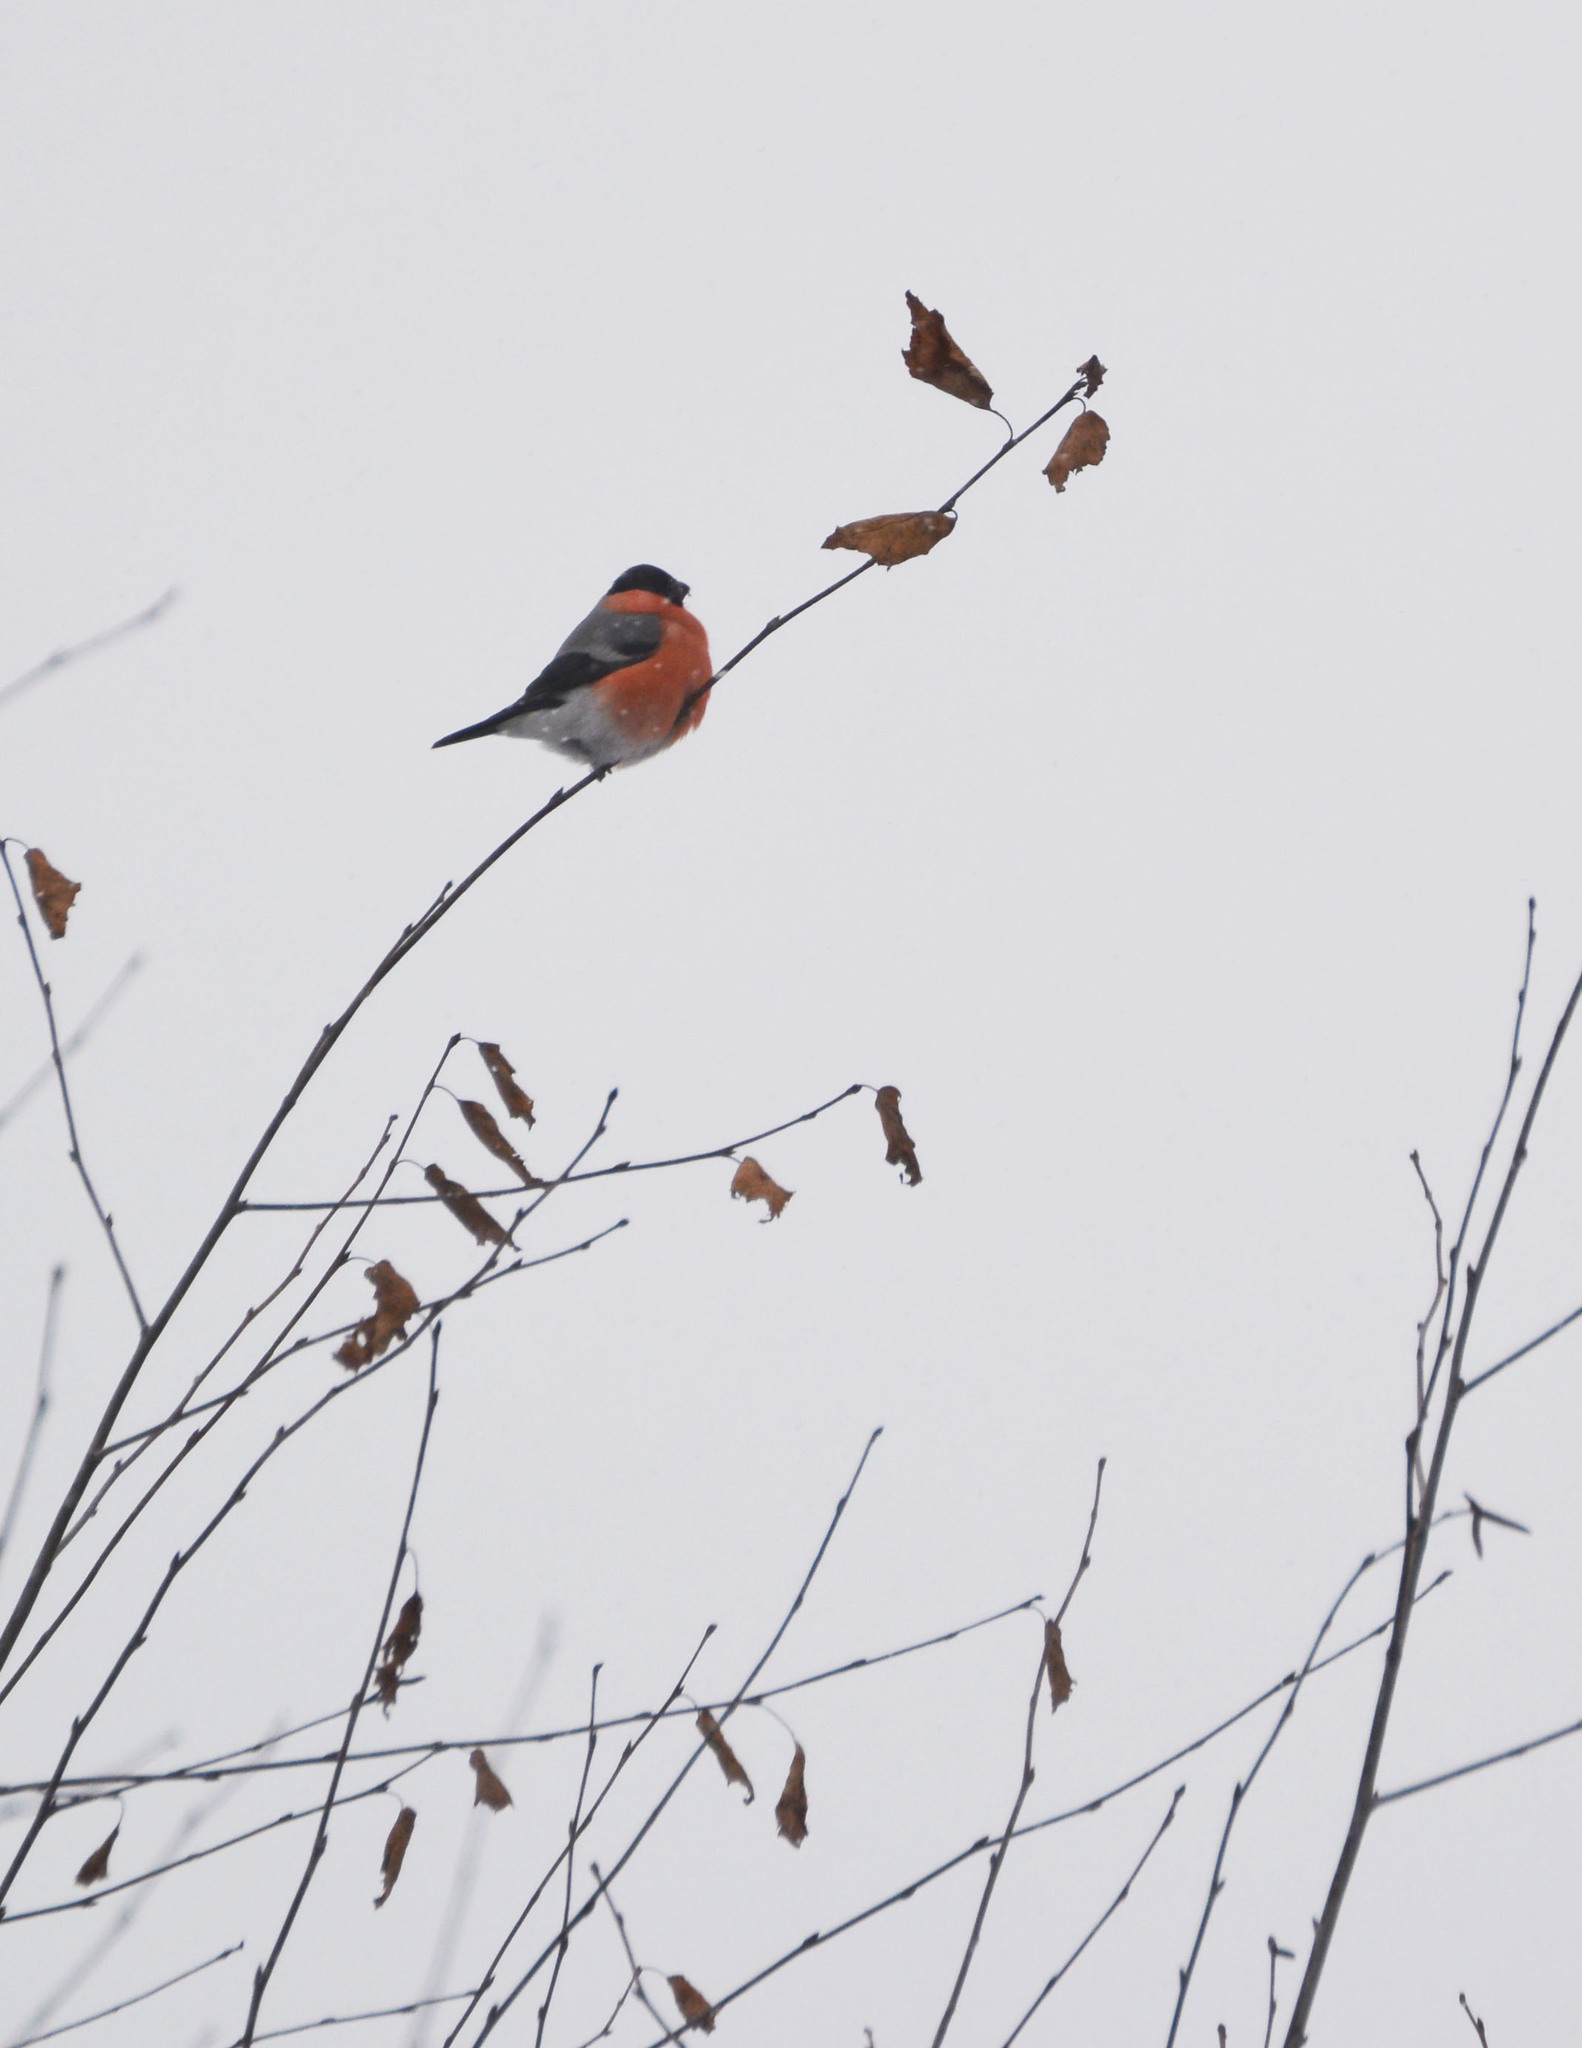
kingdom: Animalia
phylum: Chordata
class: Aves
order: Passeriformes
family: Fringillidae
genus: Pyrrhula
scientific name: Pyrrhula pyrrhula
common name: Eurasian bullfinch
